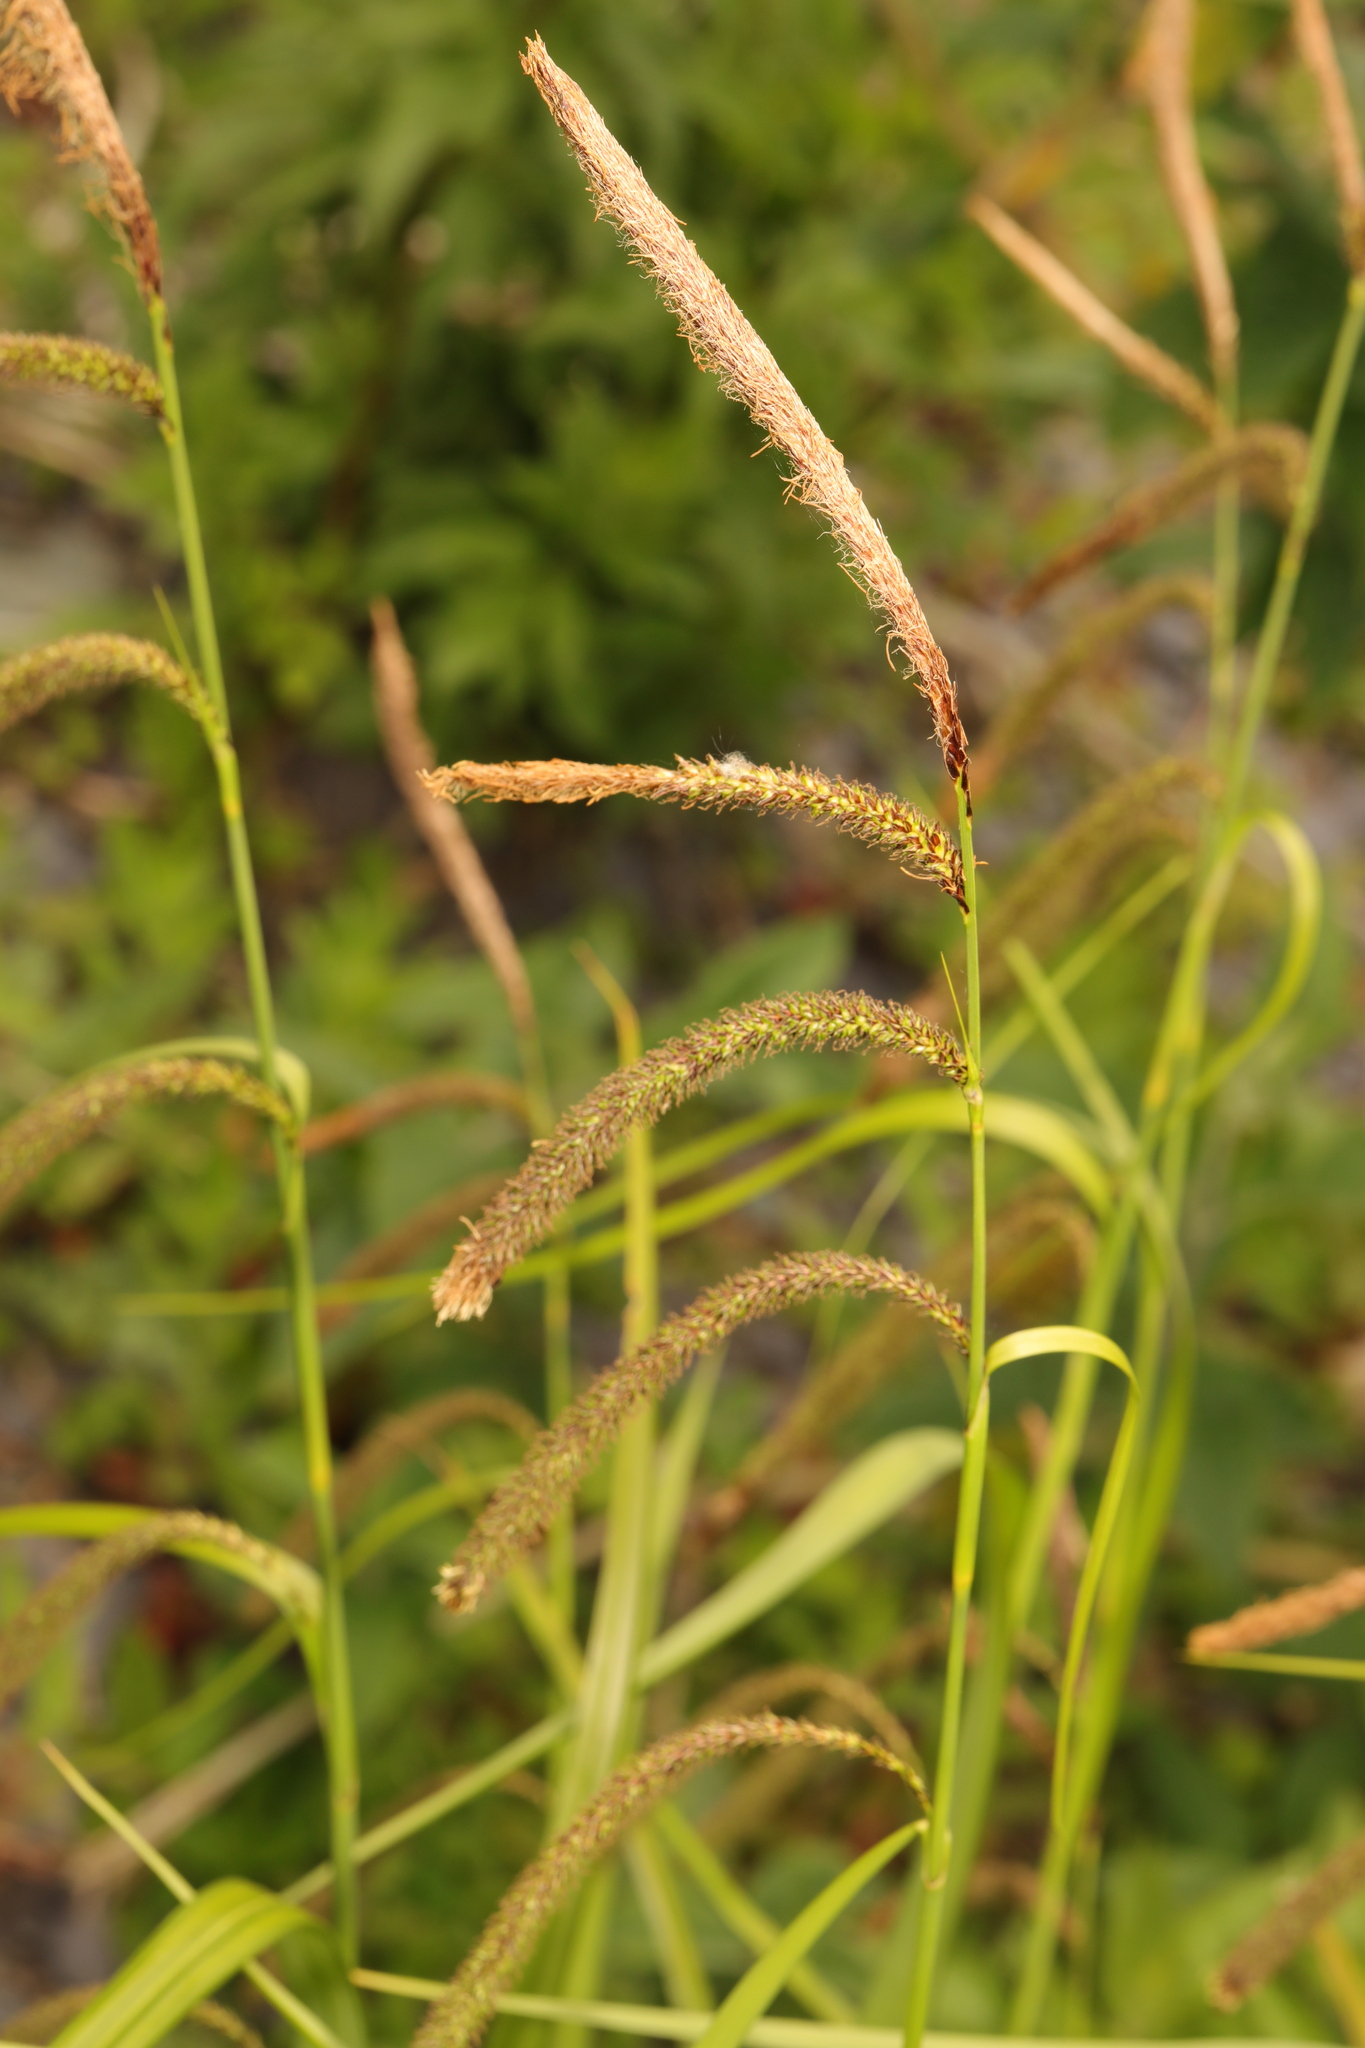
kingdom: Plantae
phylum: Tracheophyta
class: Liliopsida
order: Poales
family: Cyperaceae
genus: Carex
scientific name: Carex pendula
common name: Pendulous sedge
